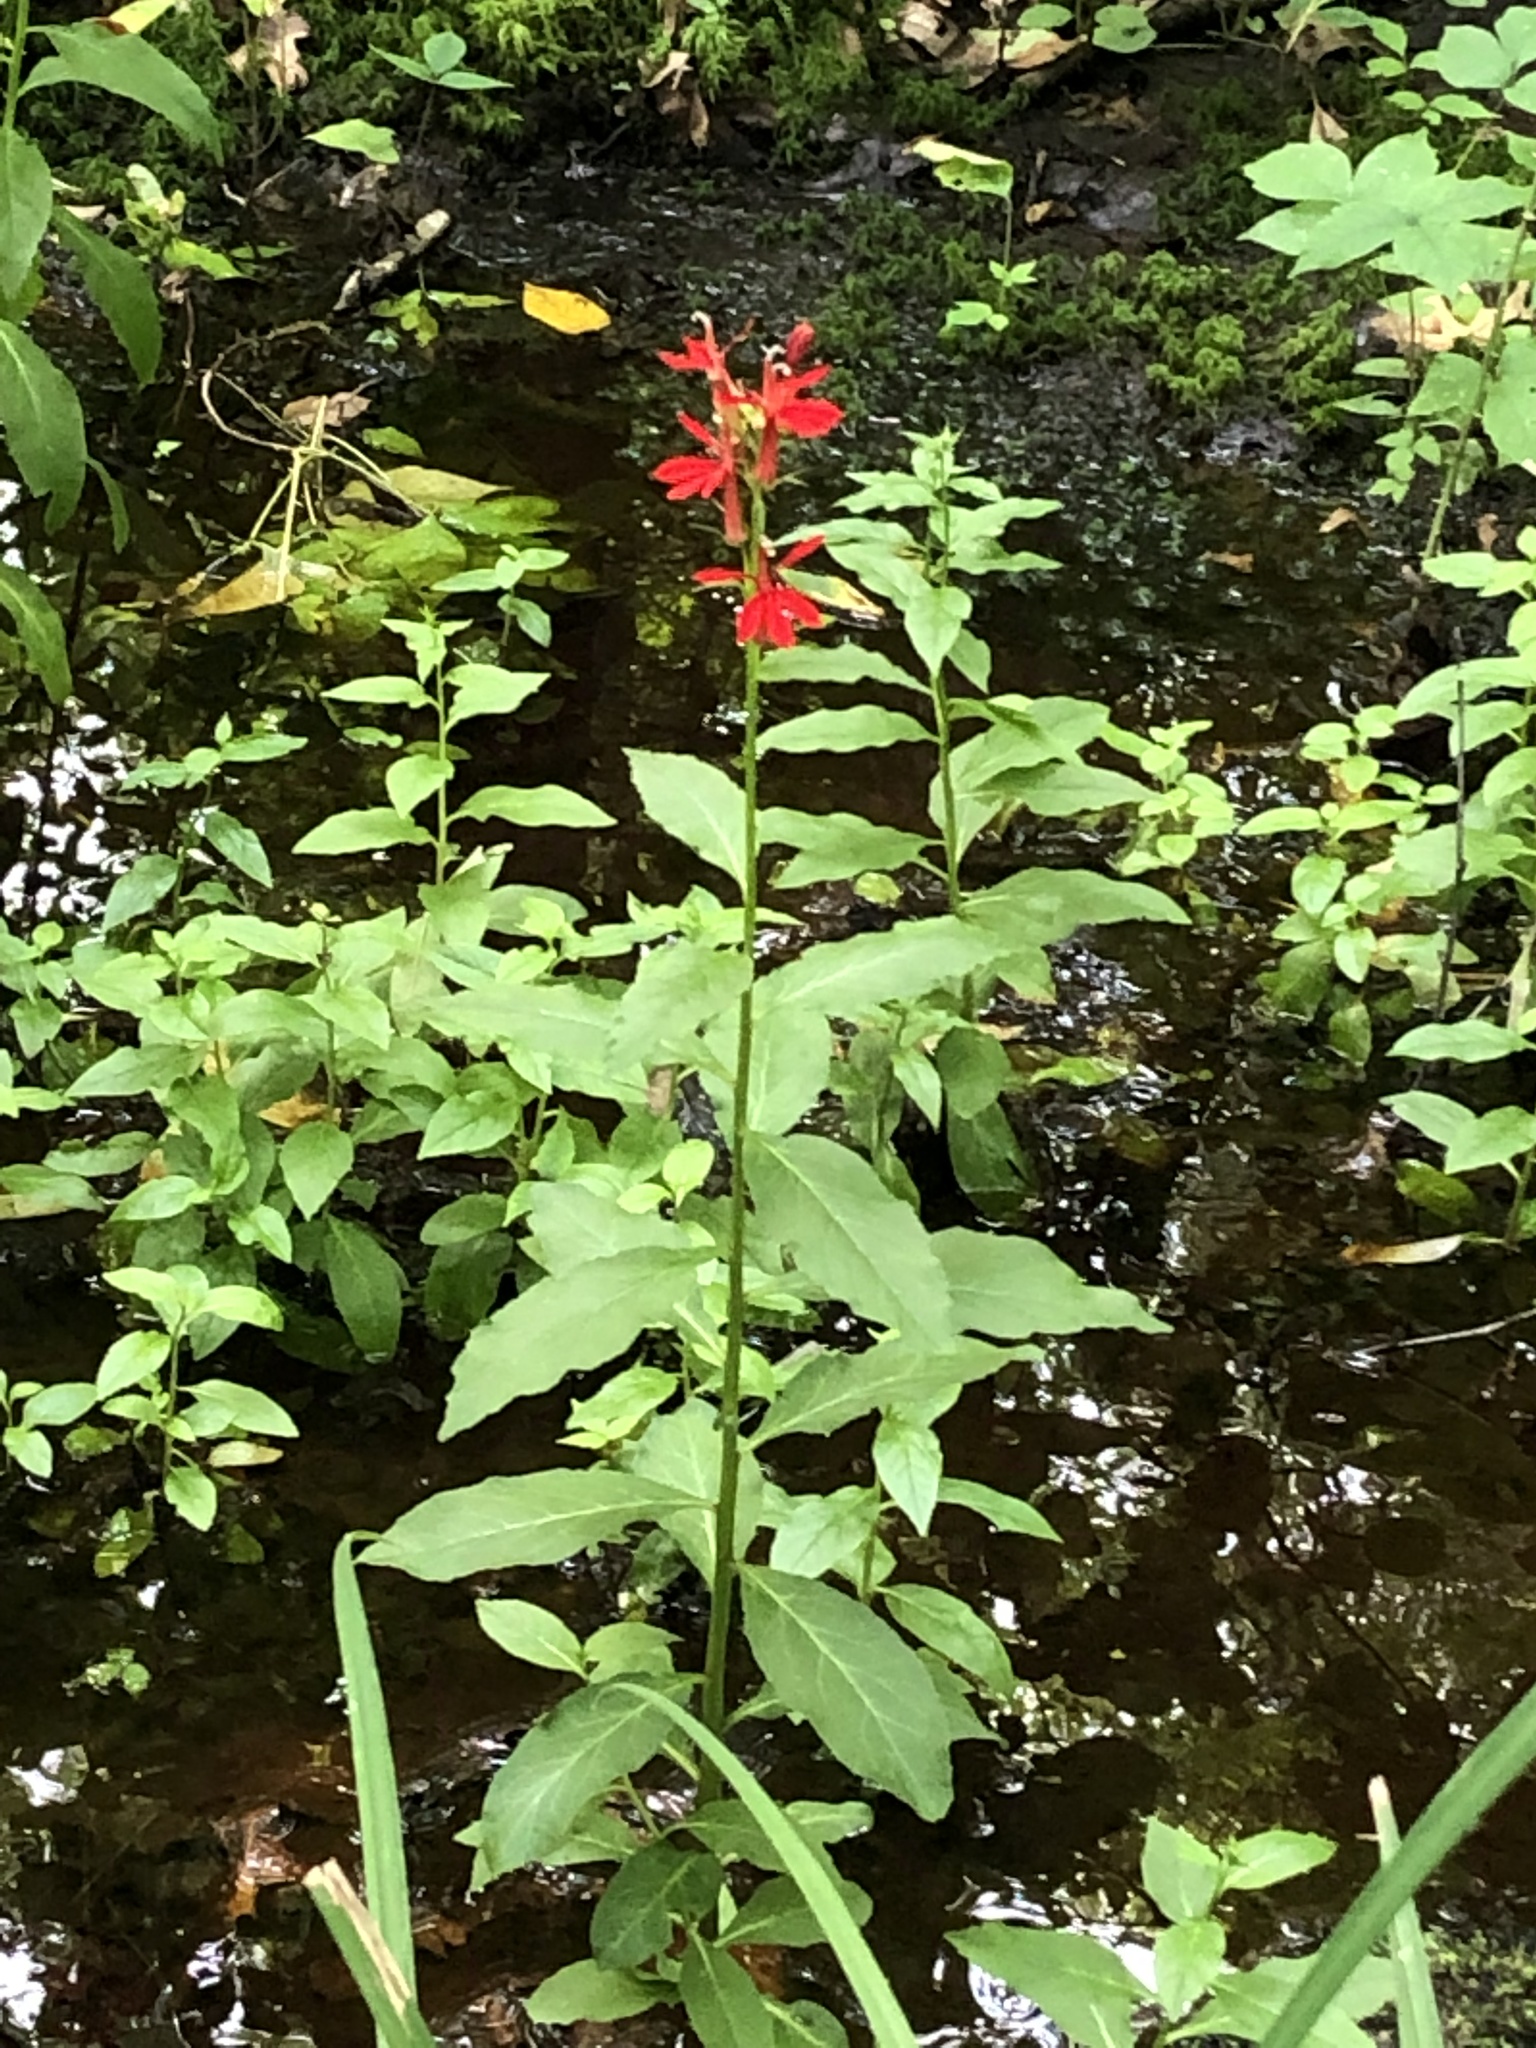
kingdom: Plantae
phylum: Tracheophyta
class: Magnoliopsida
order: Asterales
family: Campanulaceae
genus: Lobelia
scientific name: Lobelia cardinalis
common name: Cardinal flower
